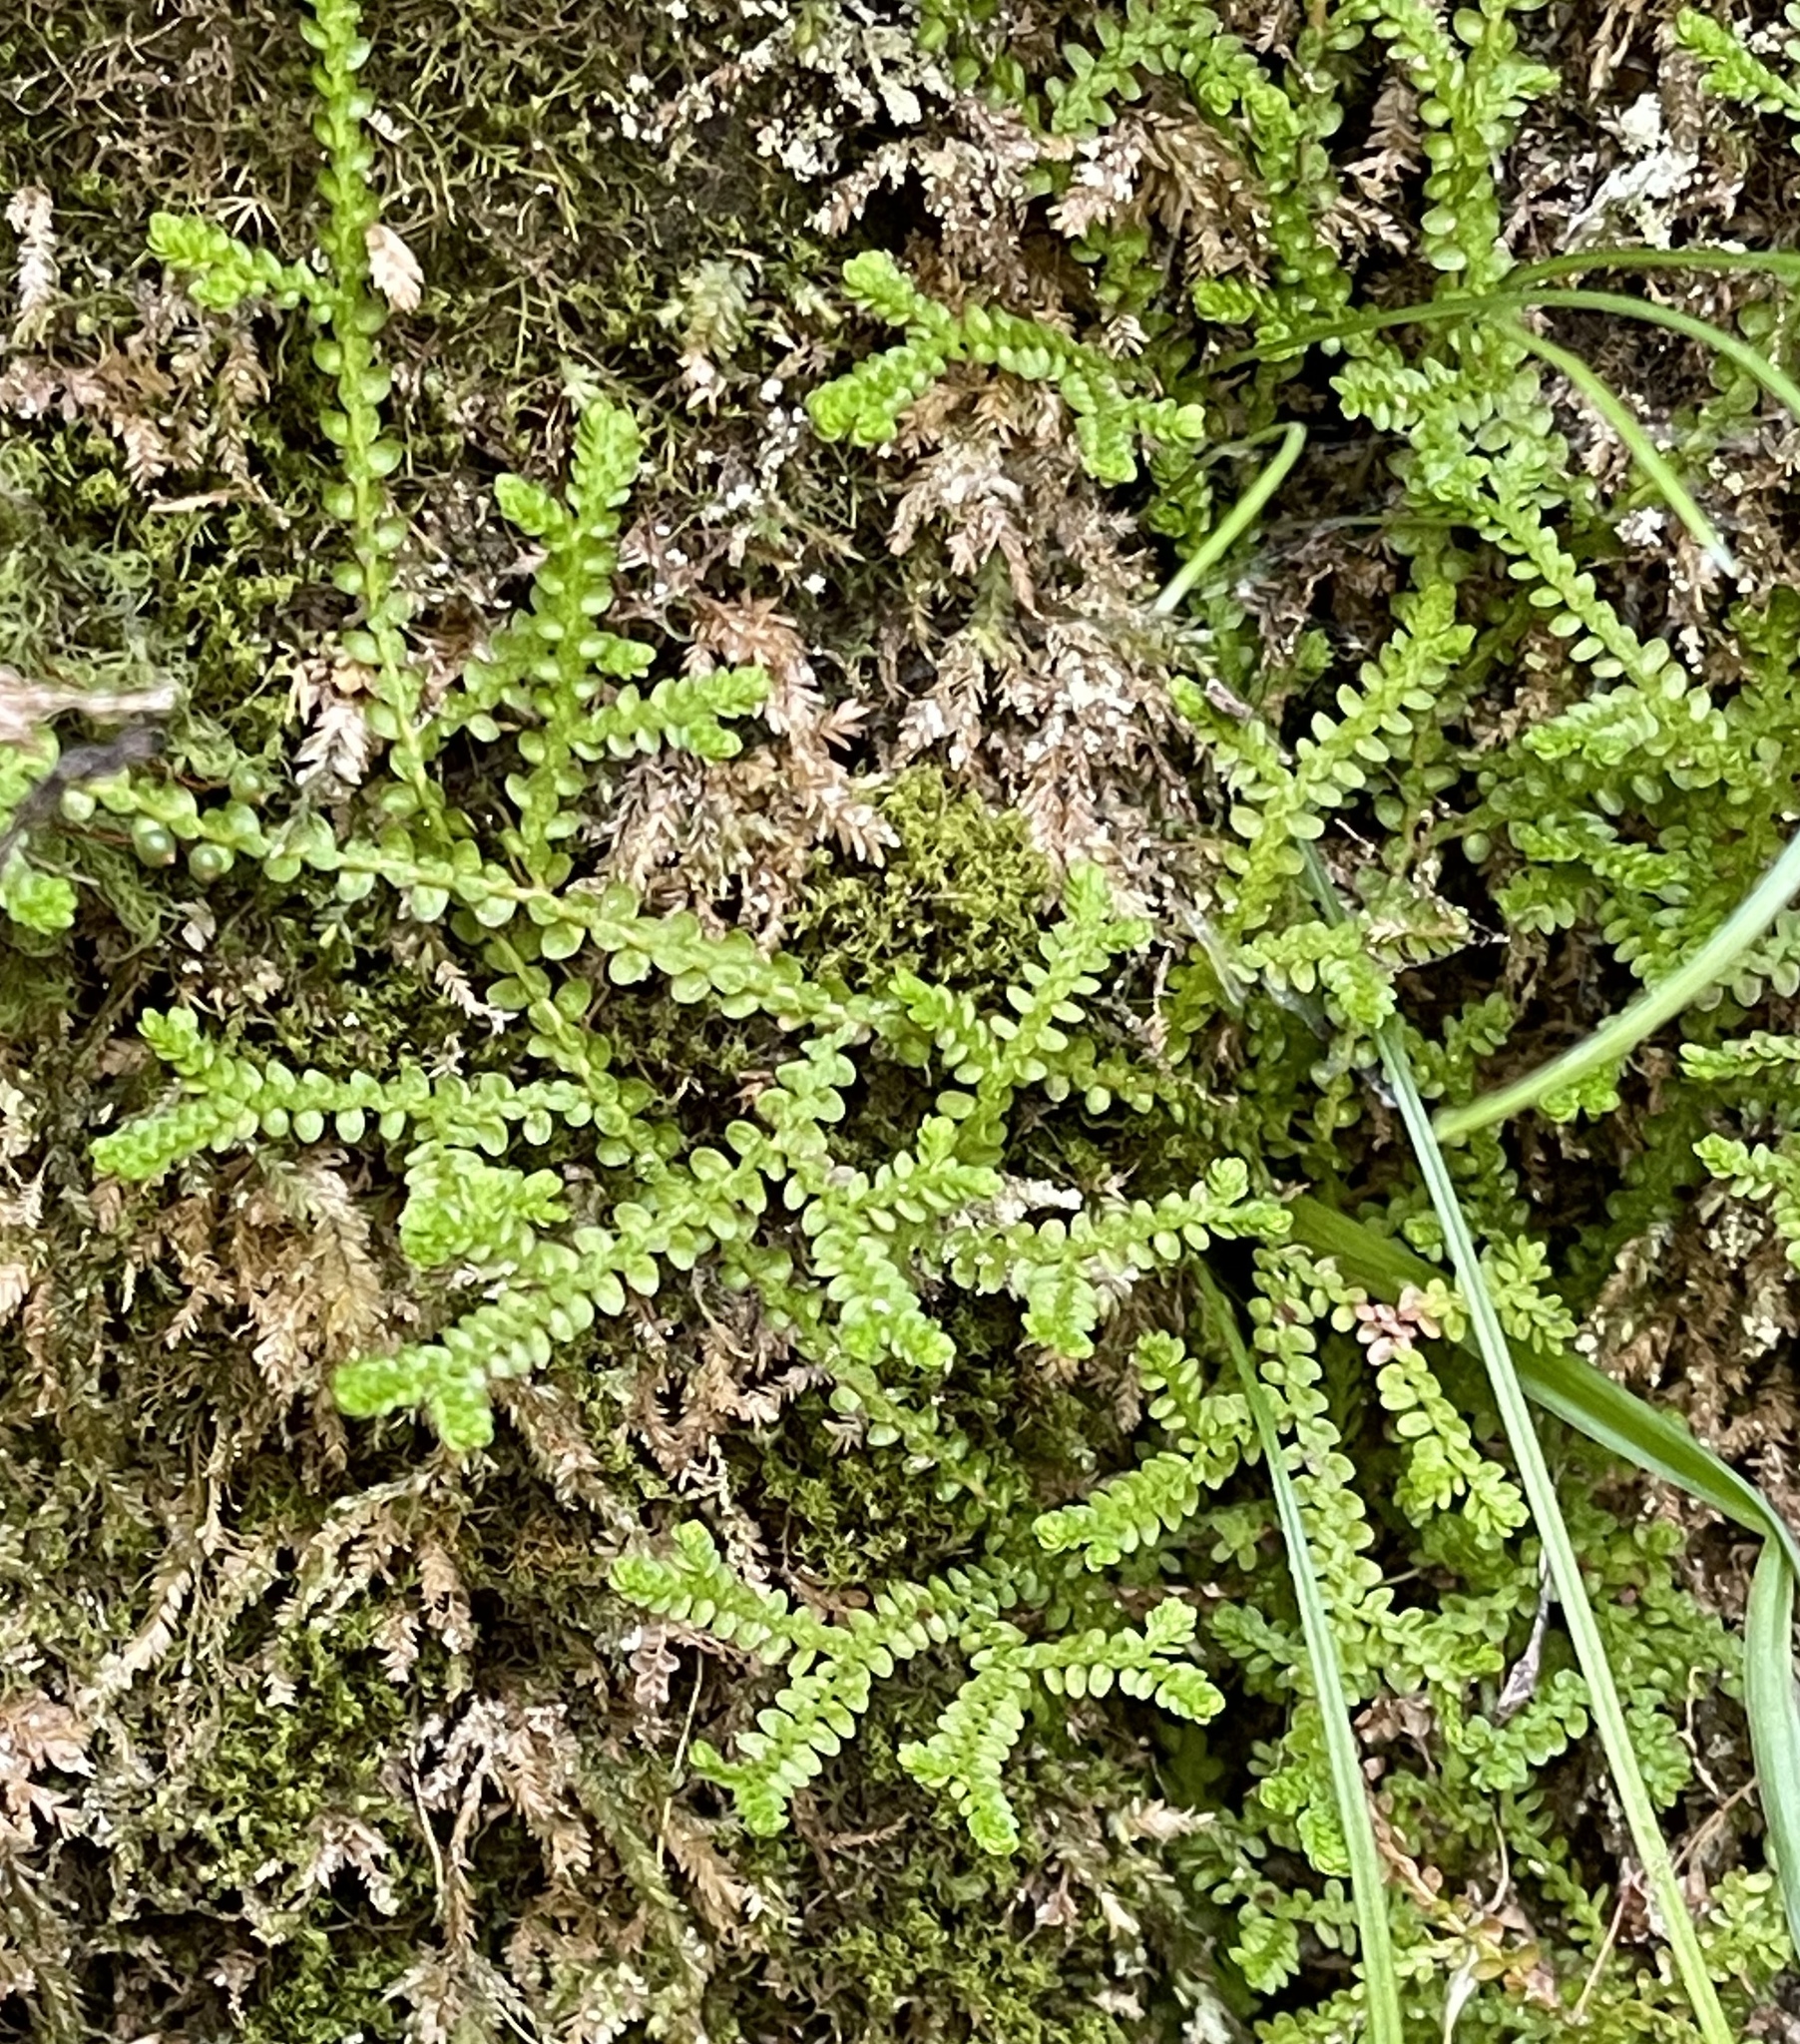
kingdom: Plantae
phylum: Tracheophyta
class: Lycopodiopsida
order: Selaginellales
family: Selaginellaceae
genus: Selaginella
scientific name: Selaginella douglasii
